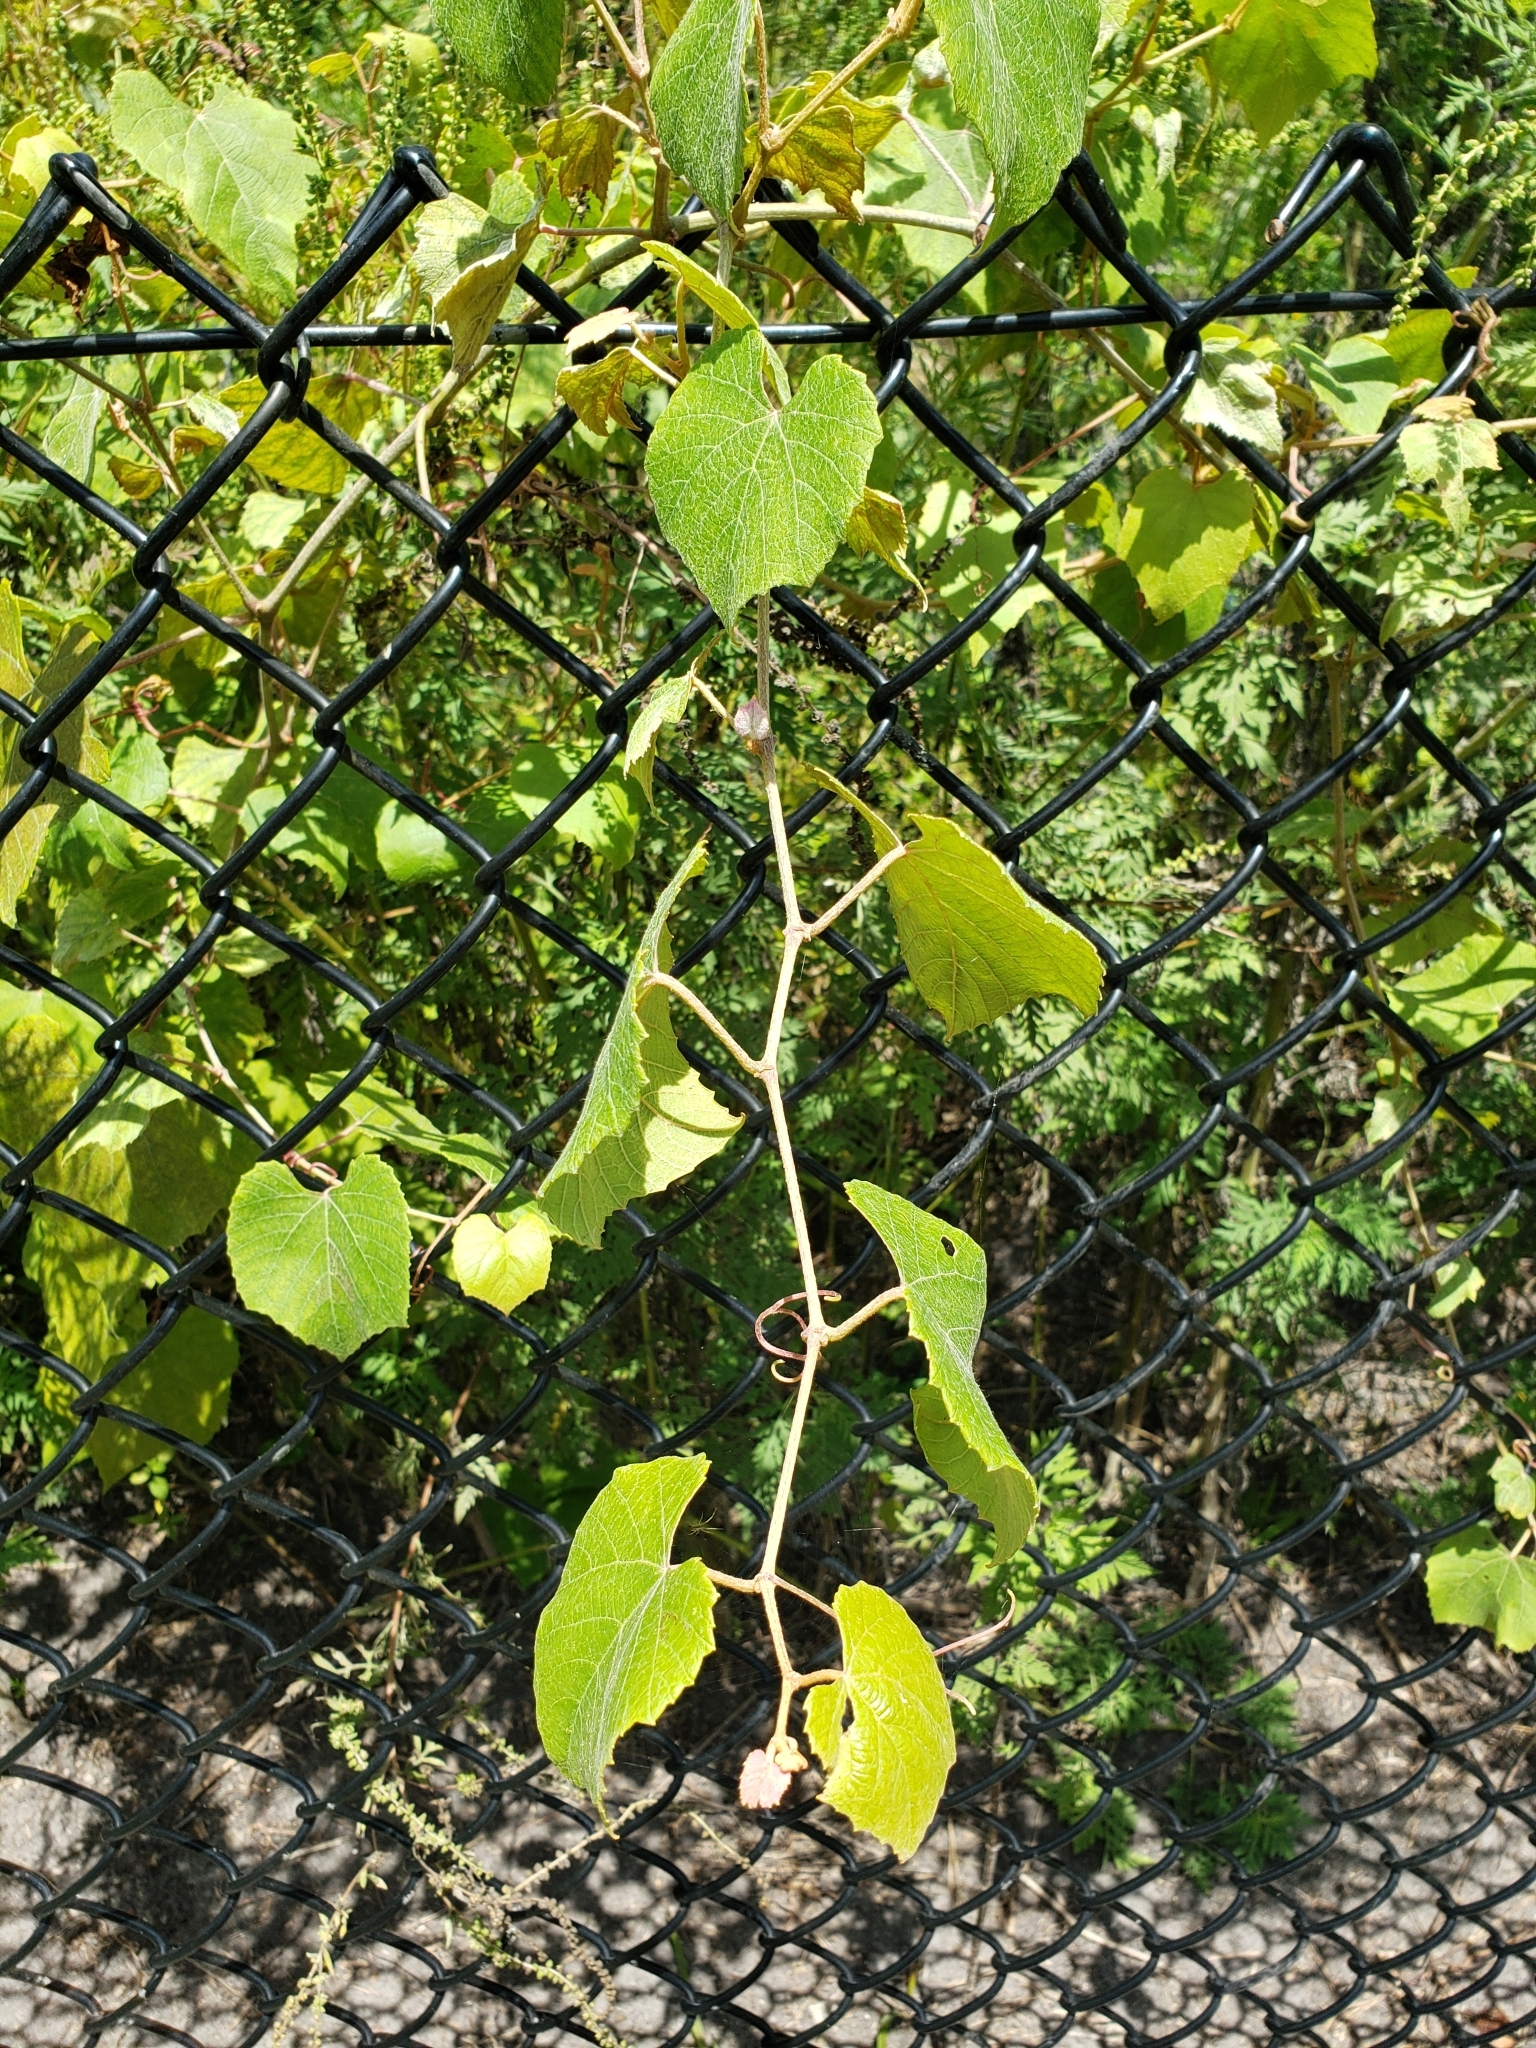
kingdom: Plantae
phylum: Tracheophyta
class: Magnoliopsida
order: Vitales
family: Vitaceae
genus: Vitis
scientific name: Vitis cinerea
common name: Ashy grape
